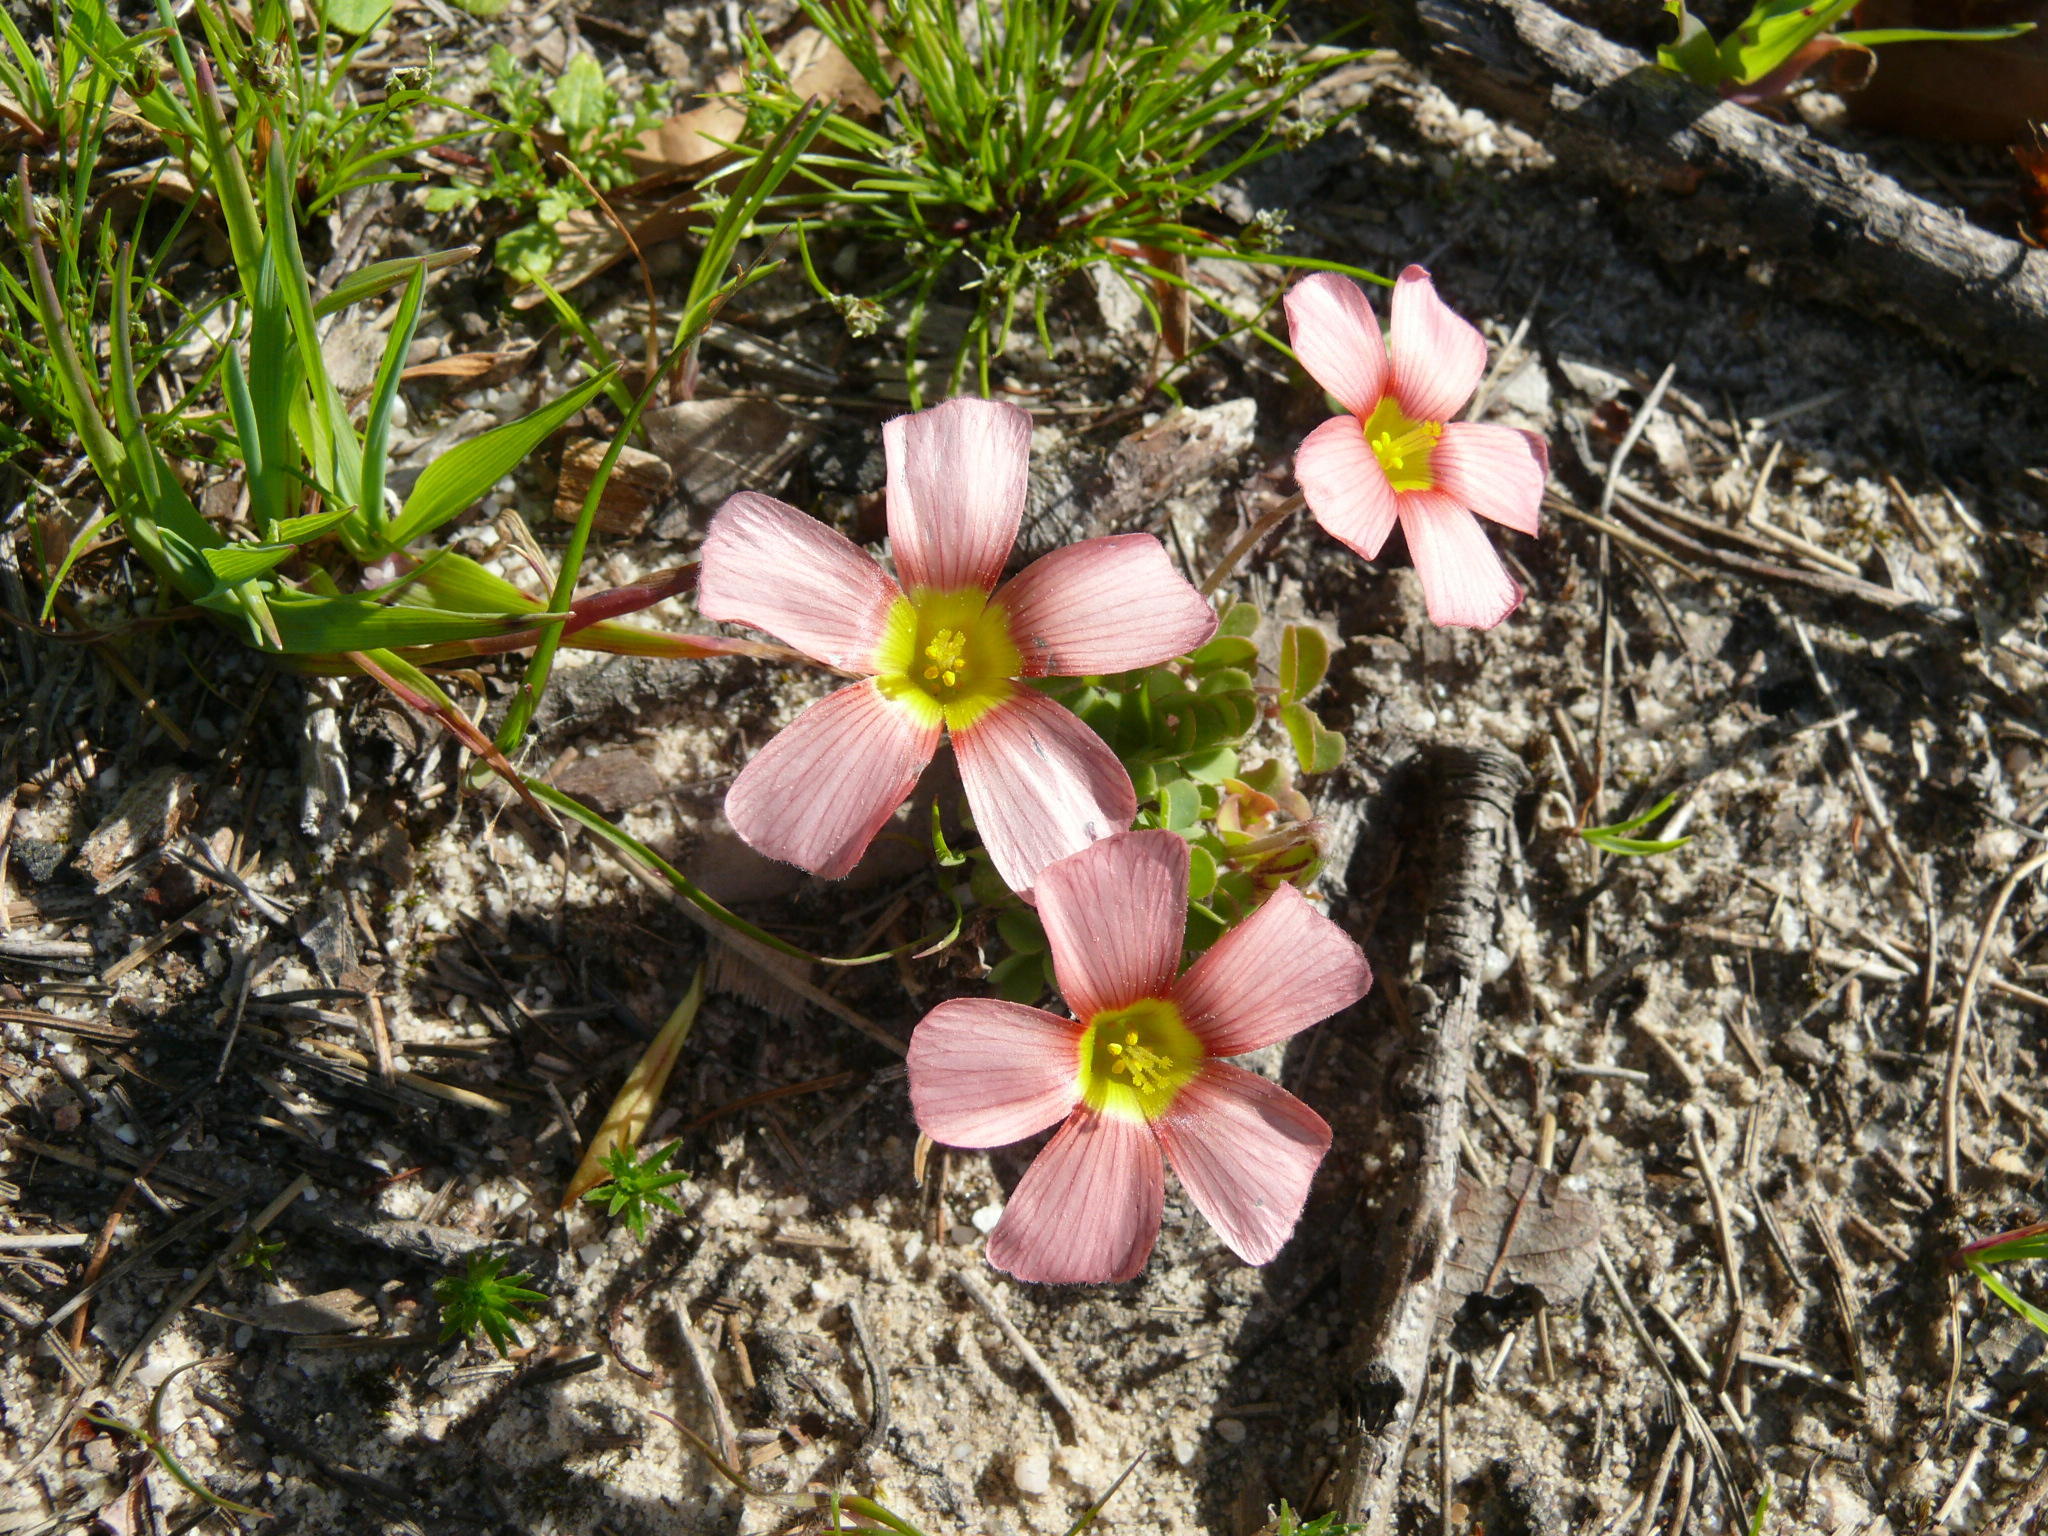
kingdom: Plantae
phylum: Tracheophyta
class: Magnoliopsida
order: Oxalidales
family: Oxalidaceae
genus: Oxalis
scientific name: Oxalis obtusa
